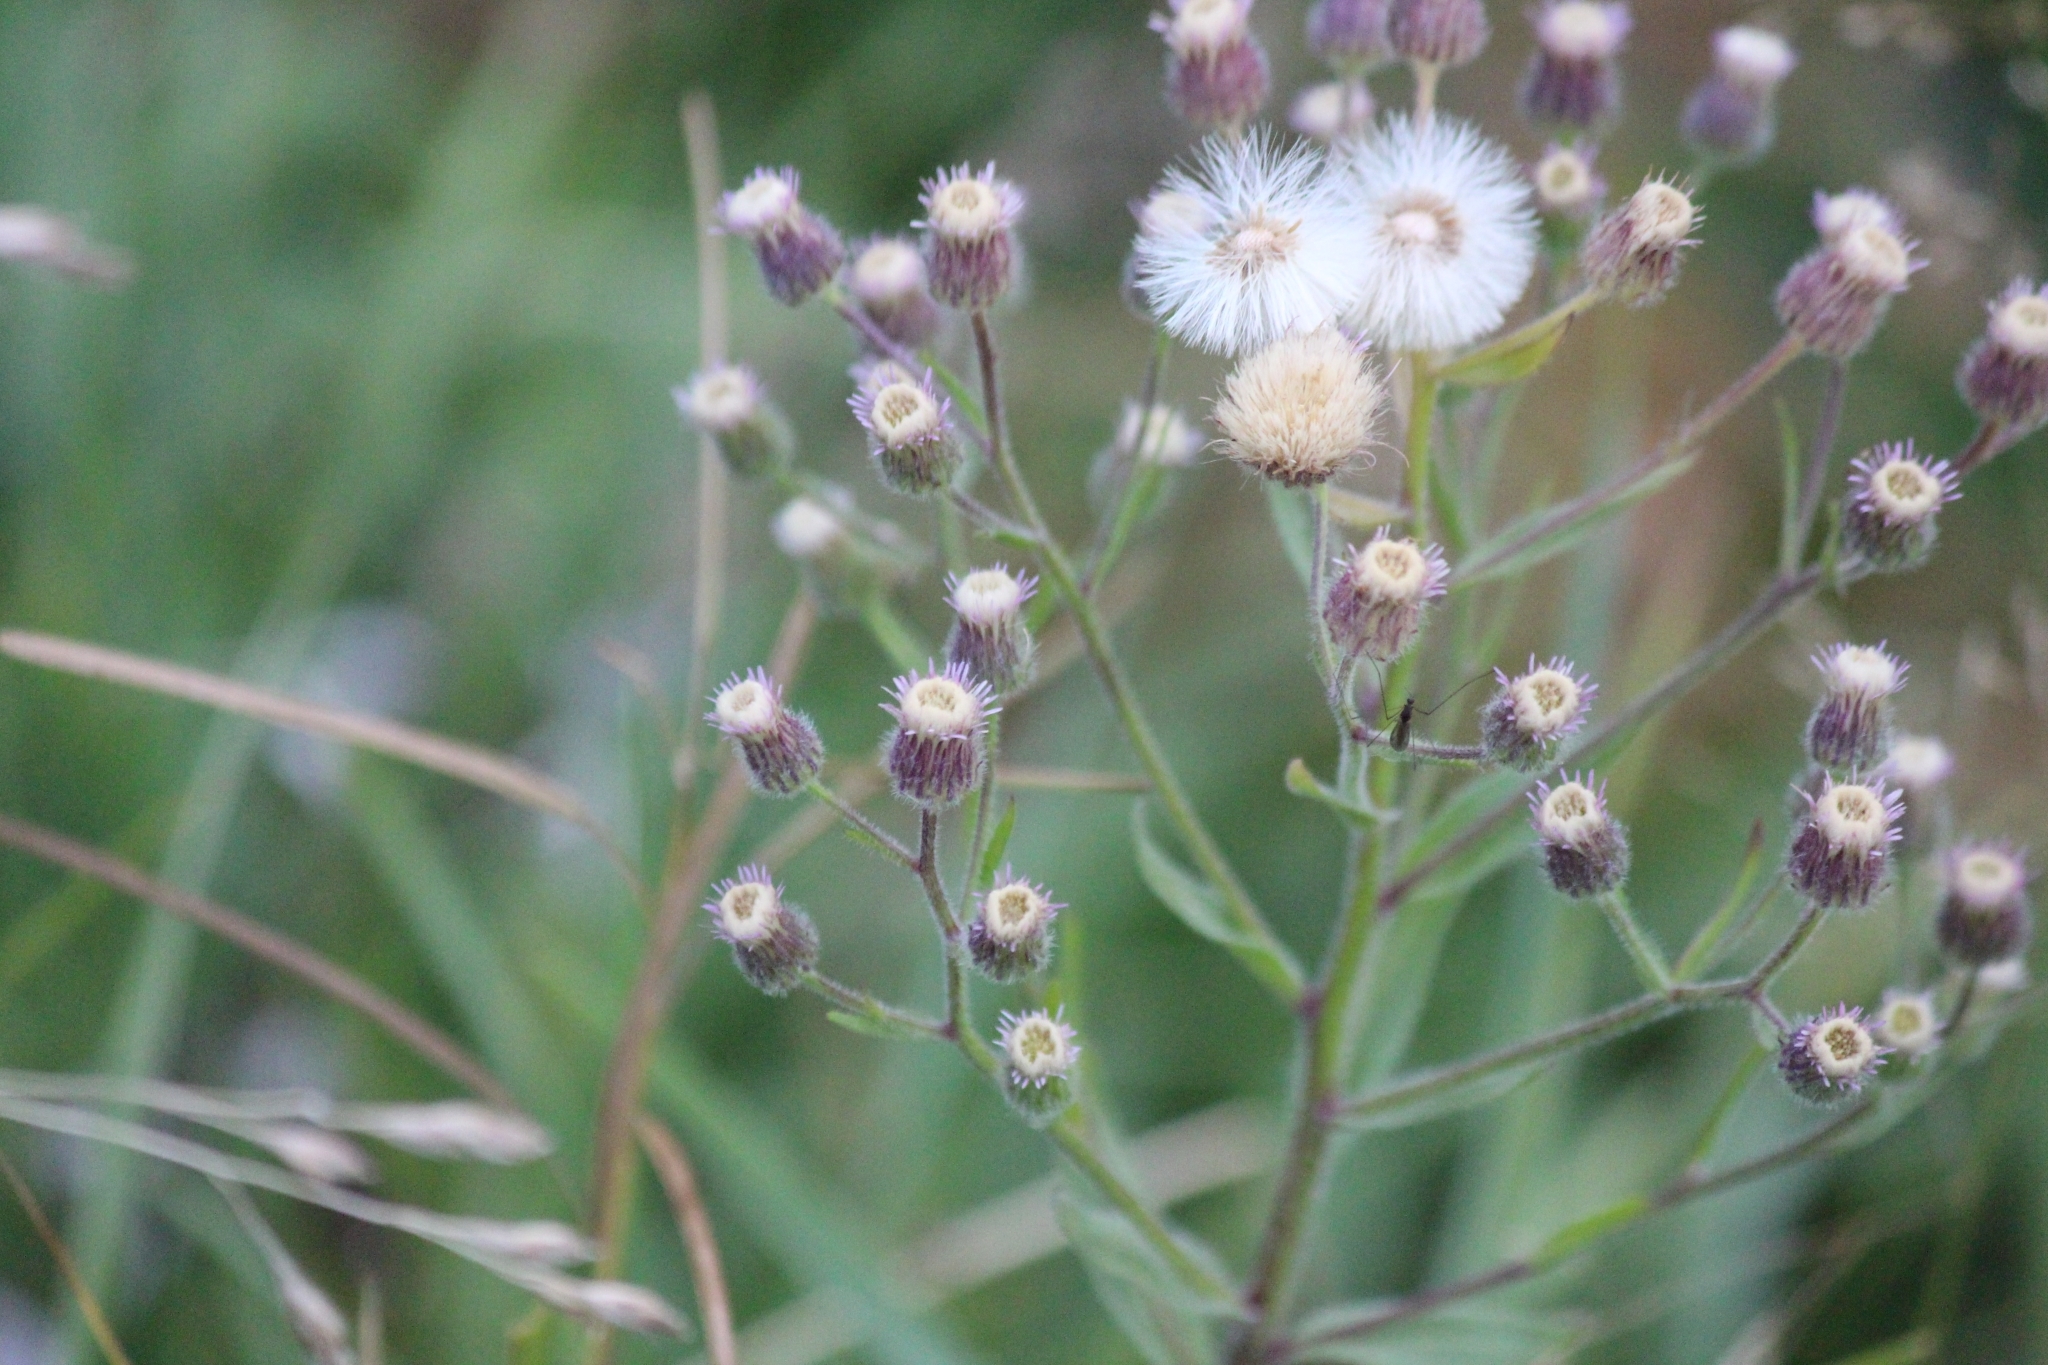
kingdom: Plantae
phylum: Tracheophyta
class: Magnoliopsida
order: Asterales
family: Asteraceae
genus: Erigeron
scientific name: Erigeron acris
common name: Blue fleabane
